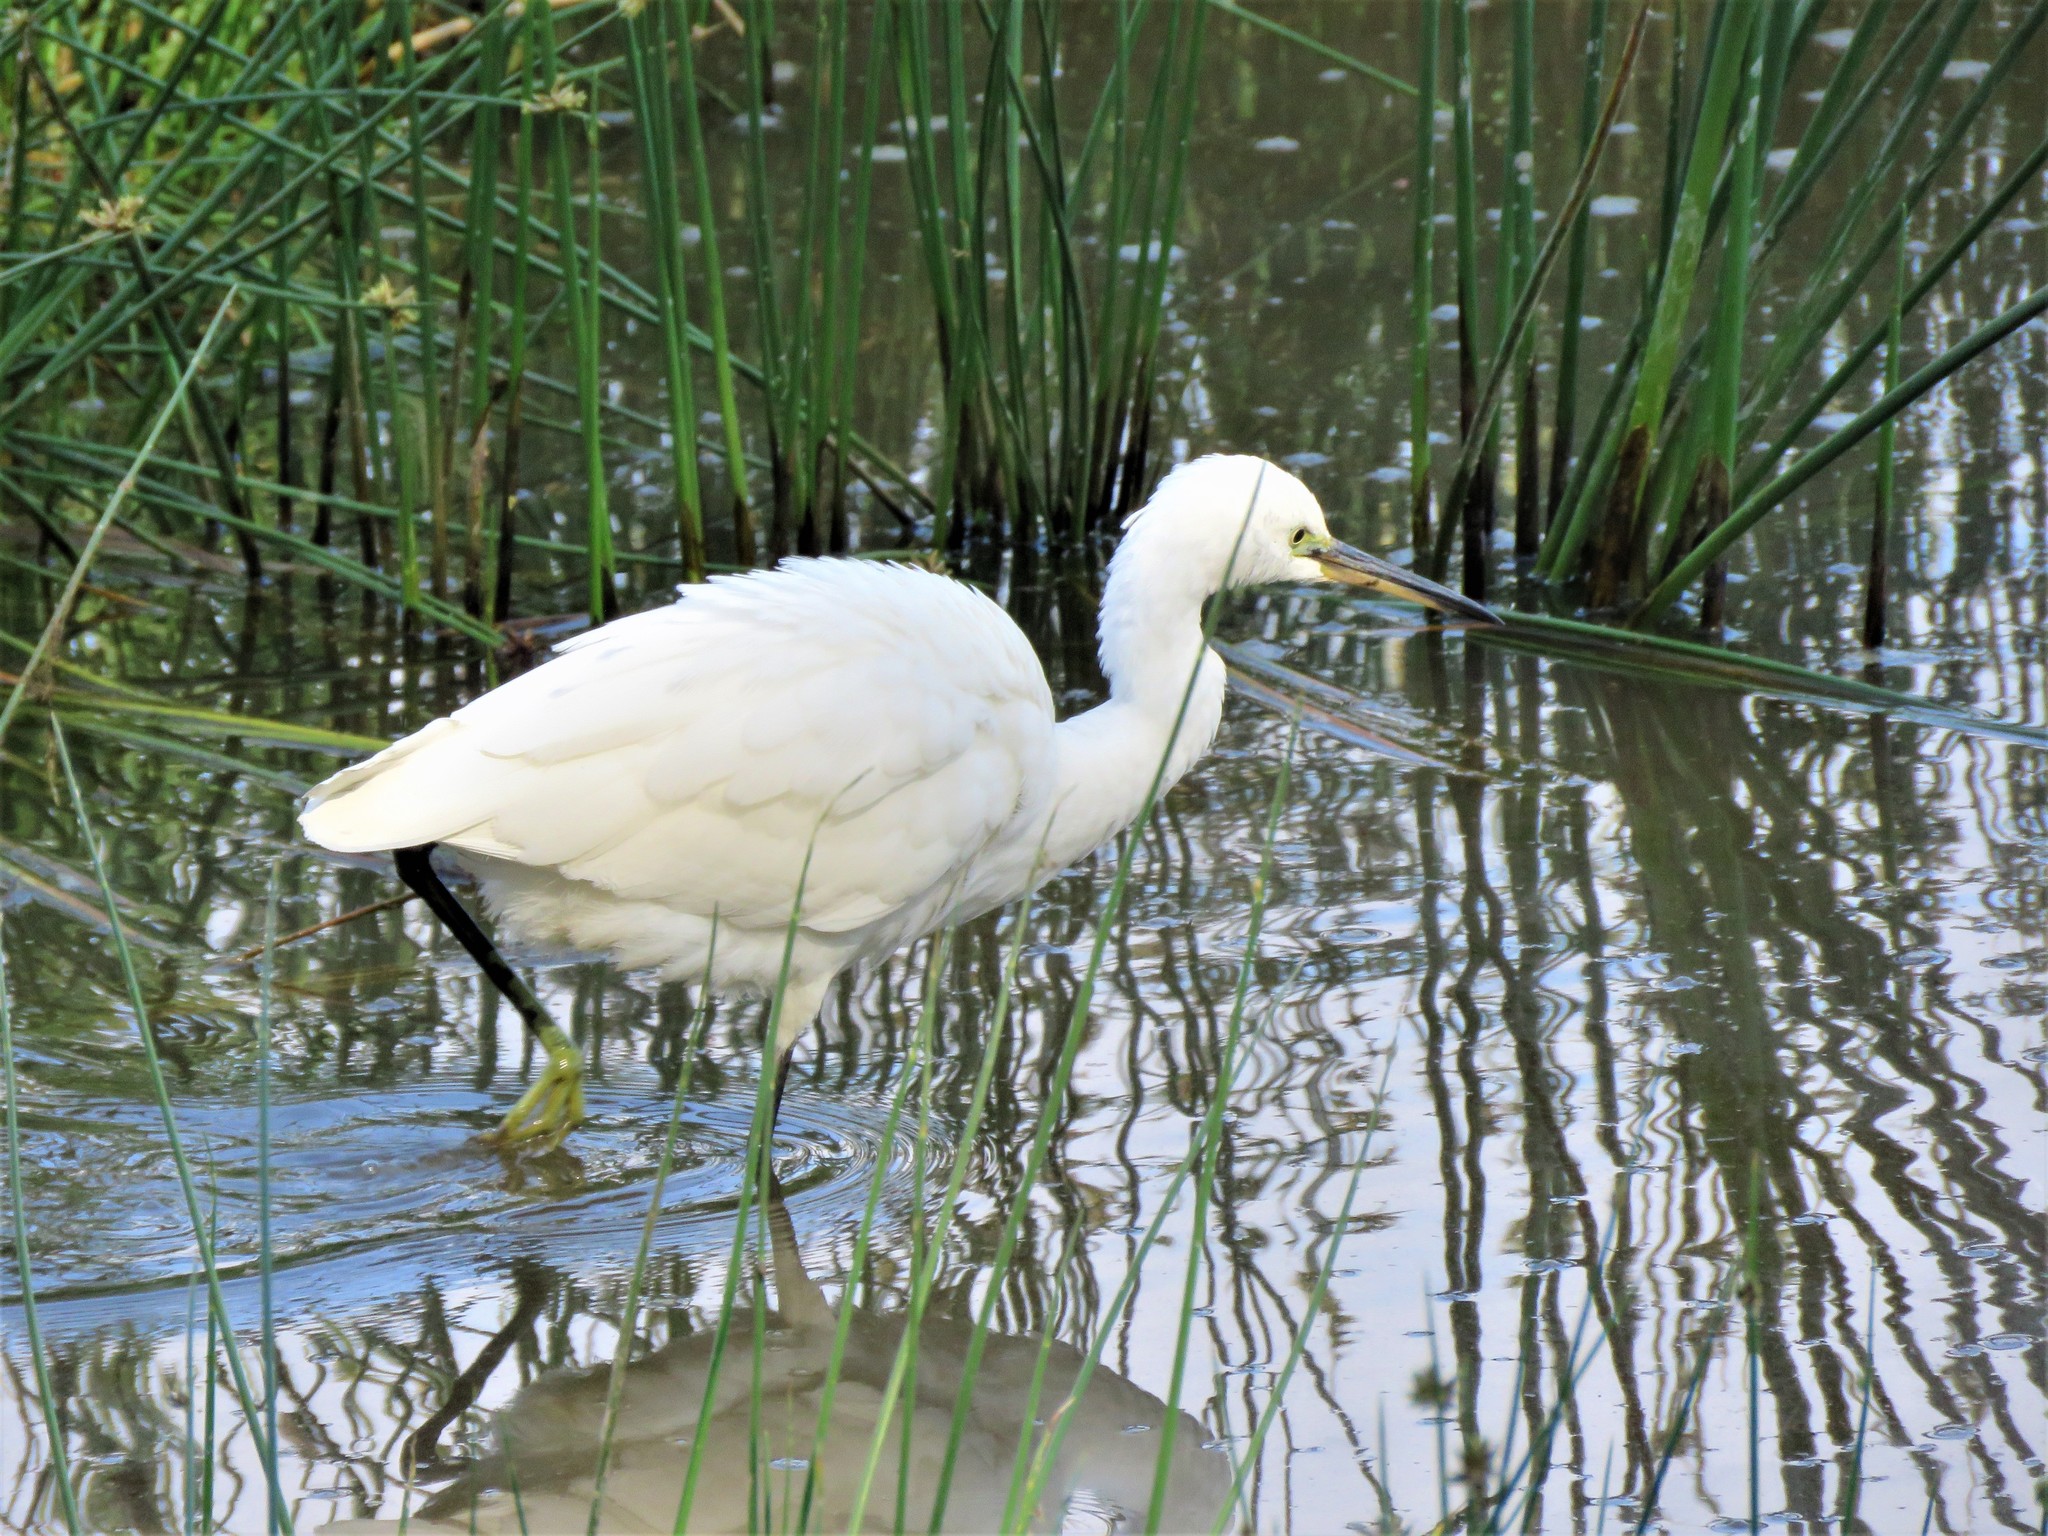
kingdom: Animalia
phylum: Chordata
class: Aves
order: Pelecaniformes
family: Ardeidae
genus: Egretta
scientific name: Egretta garzetta
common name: Little egret
